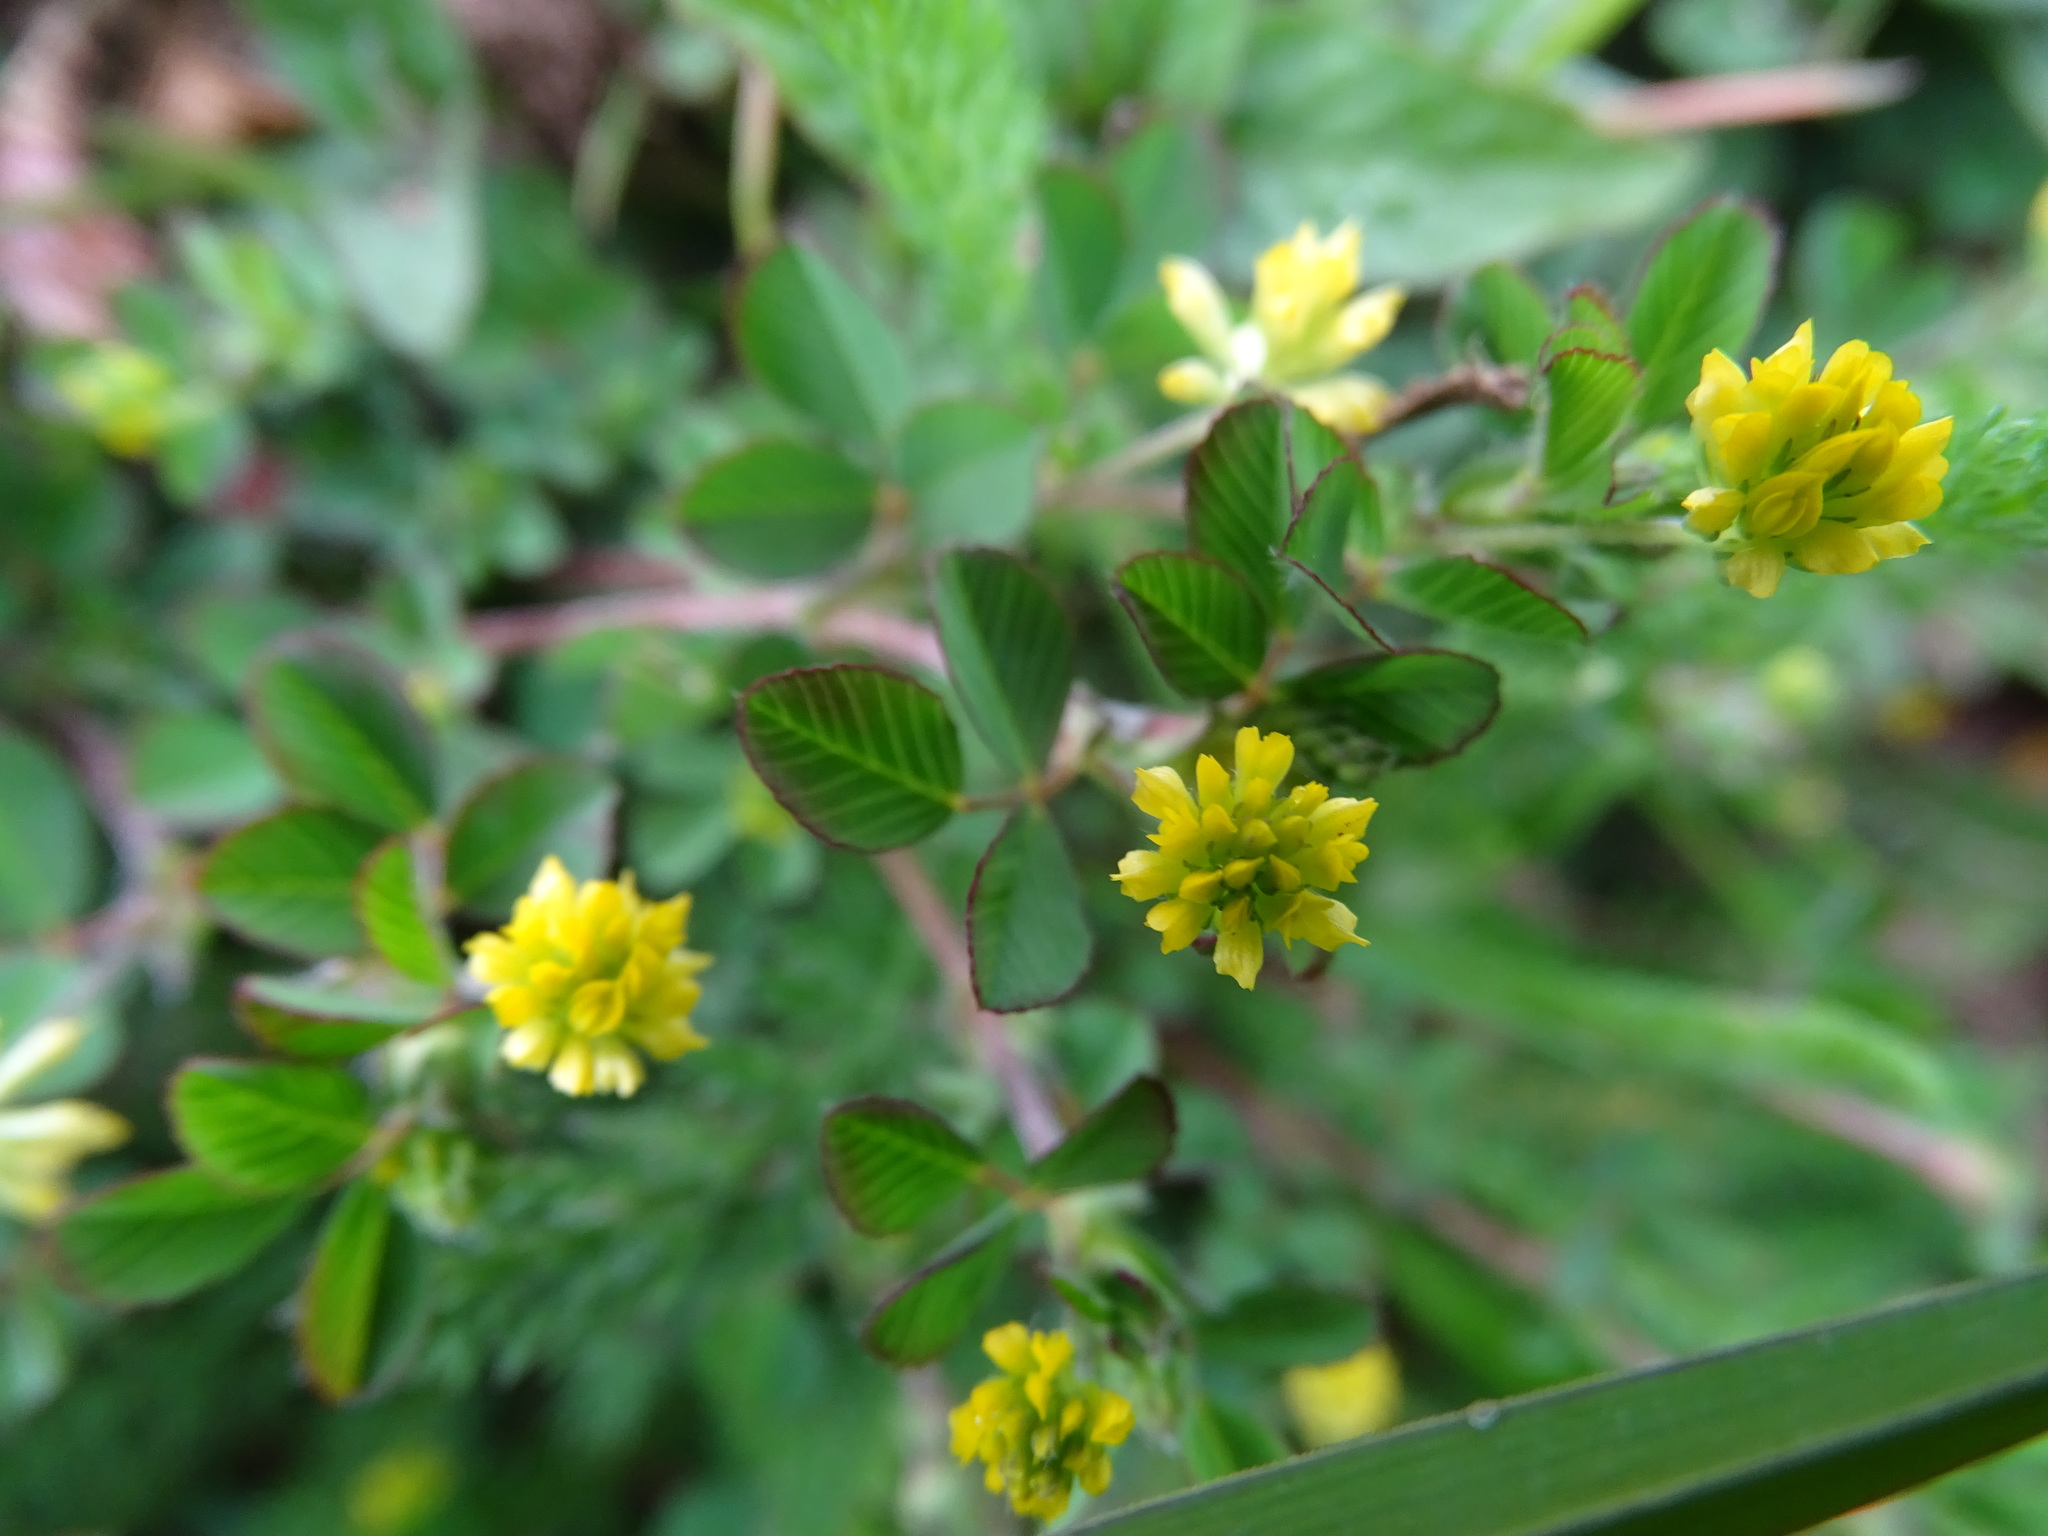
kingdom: Plantae
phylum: Tracheophyta
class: Magnoliopsida
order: Fabales
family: Fabaceae
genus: Trifolium
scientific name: Trifolium dubium
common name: Suckling clover
